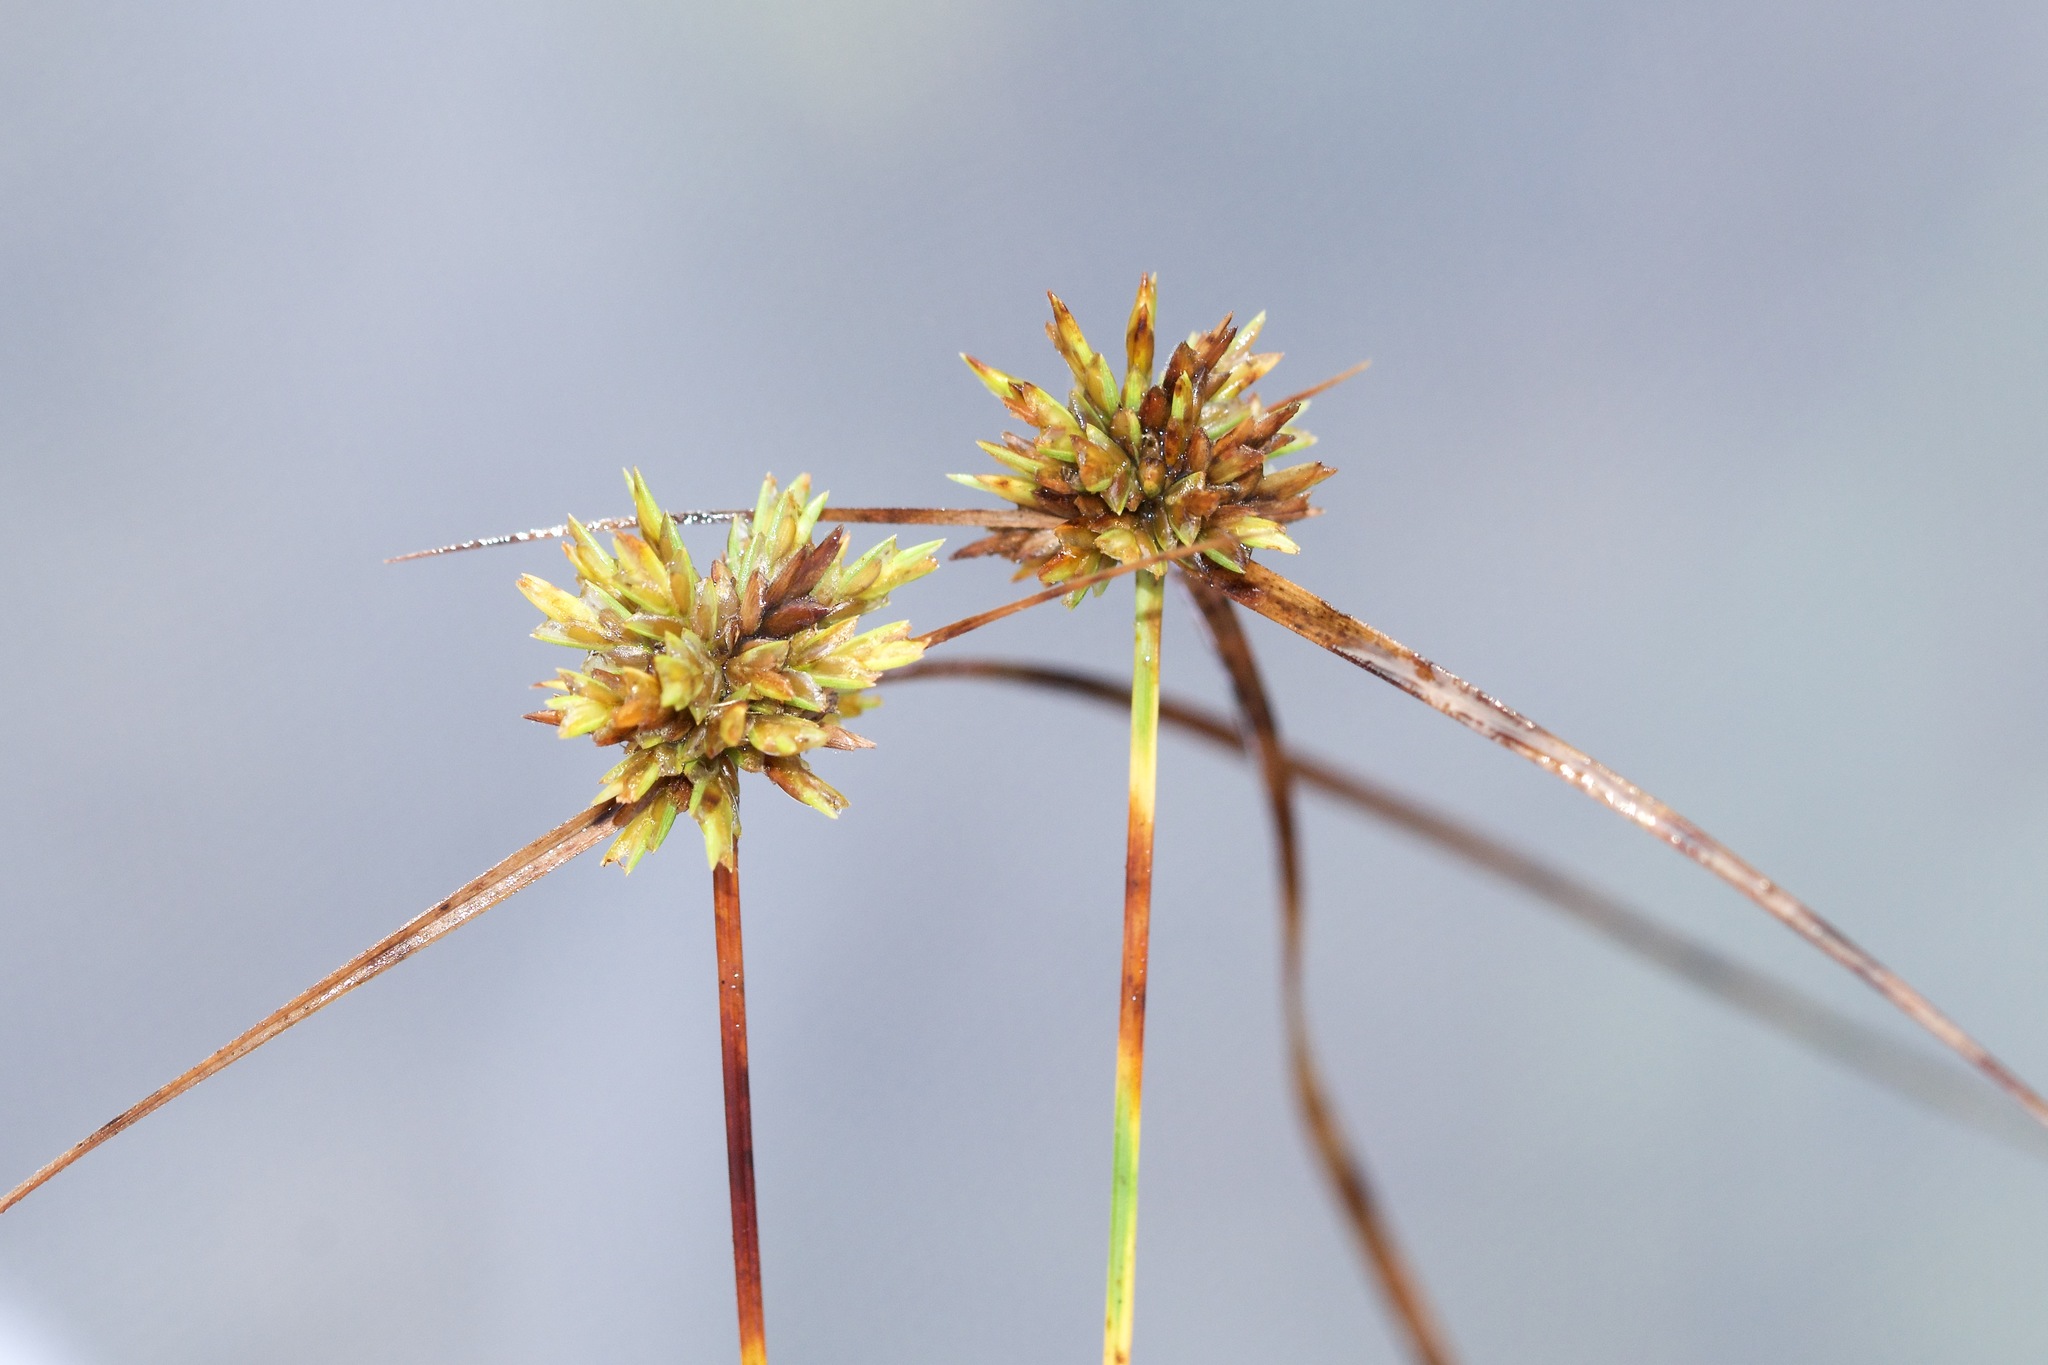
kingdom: Plantae
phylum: Tracheophyta
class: Liliopsida
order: Poales
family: Cyperaceae
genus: Cyperus
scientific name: Cyperus lupulinus
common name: Great plains flatsedge
